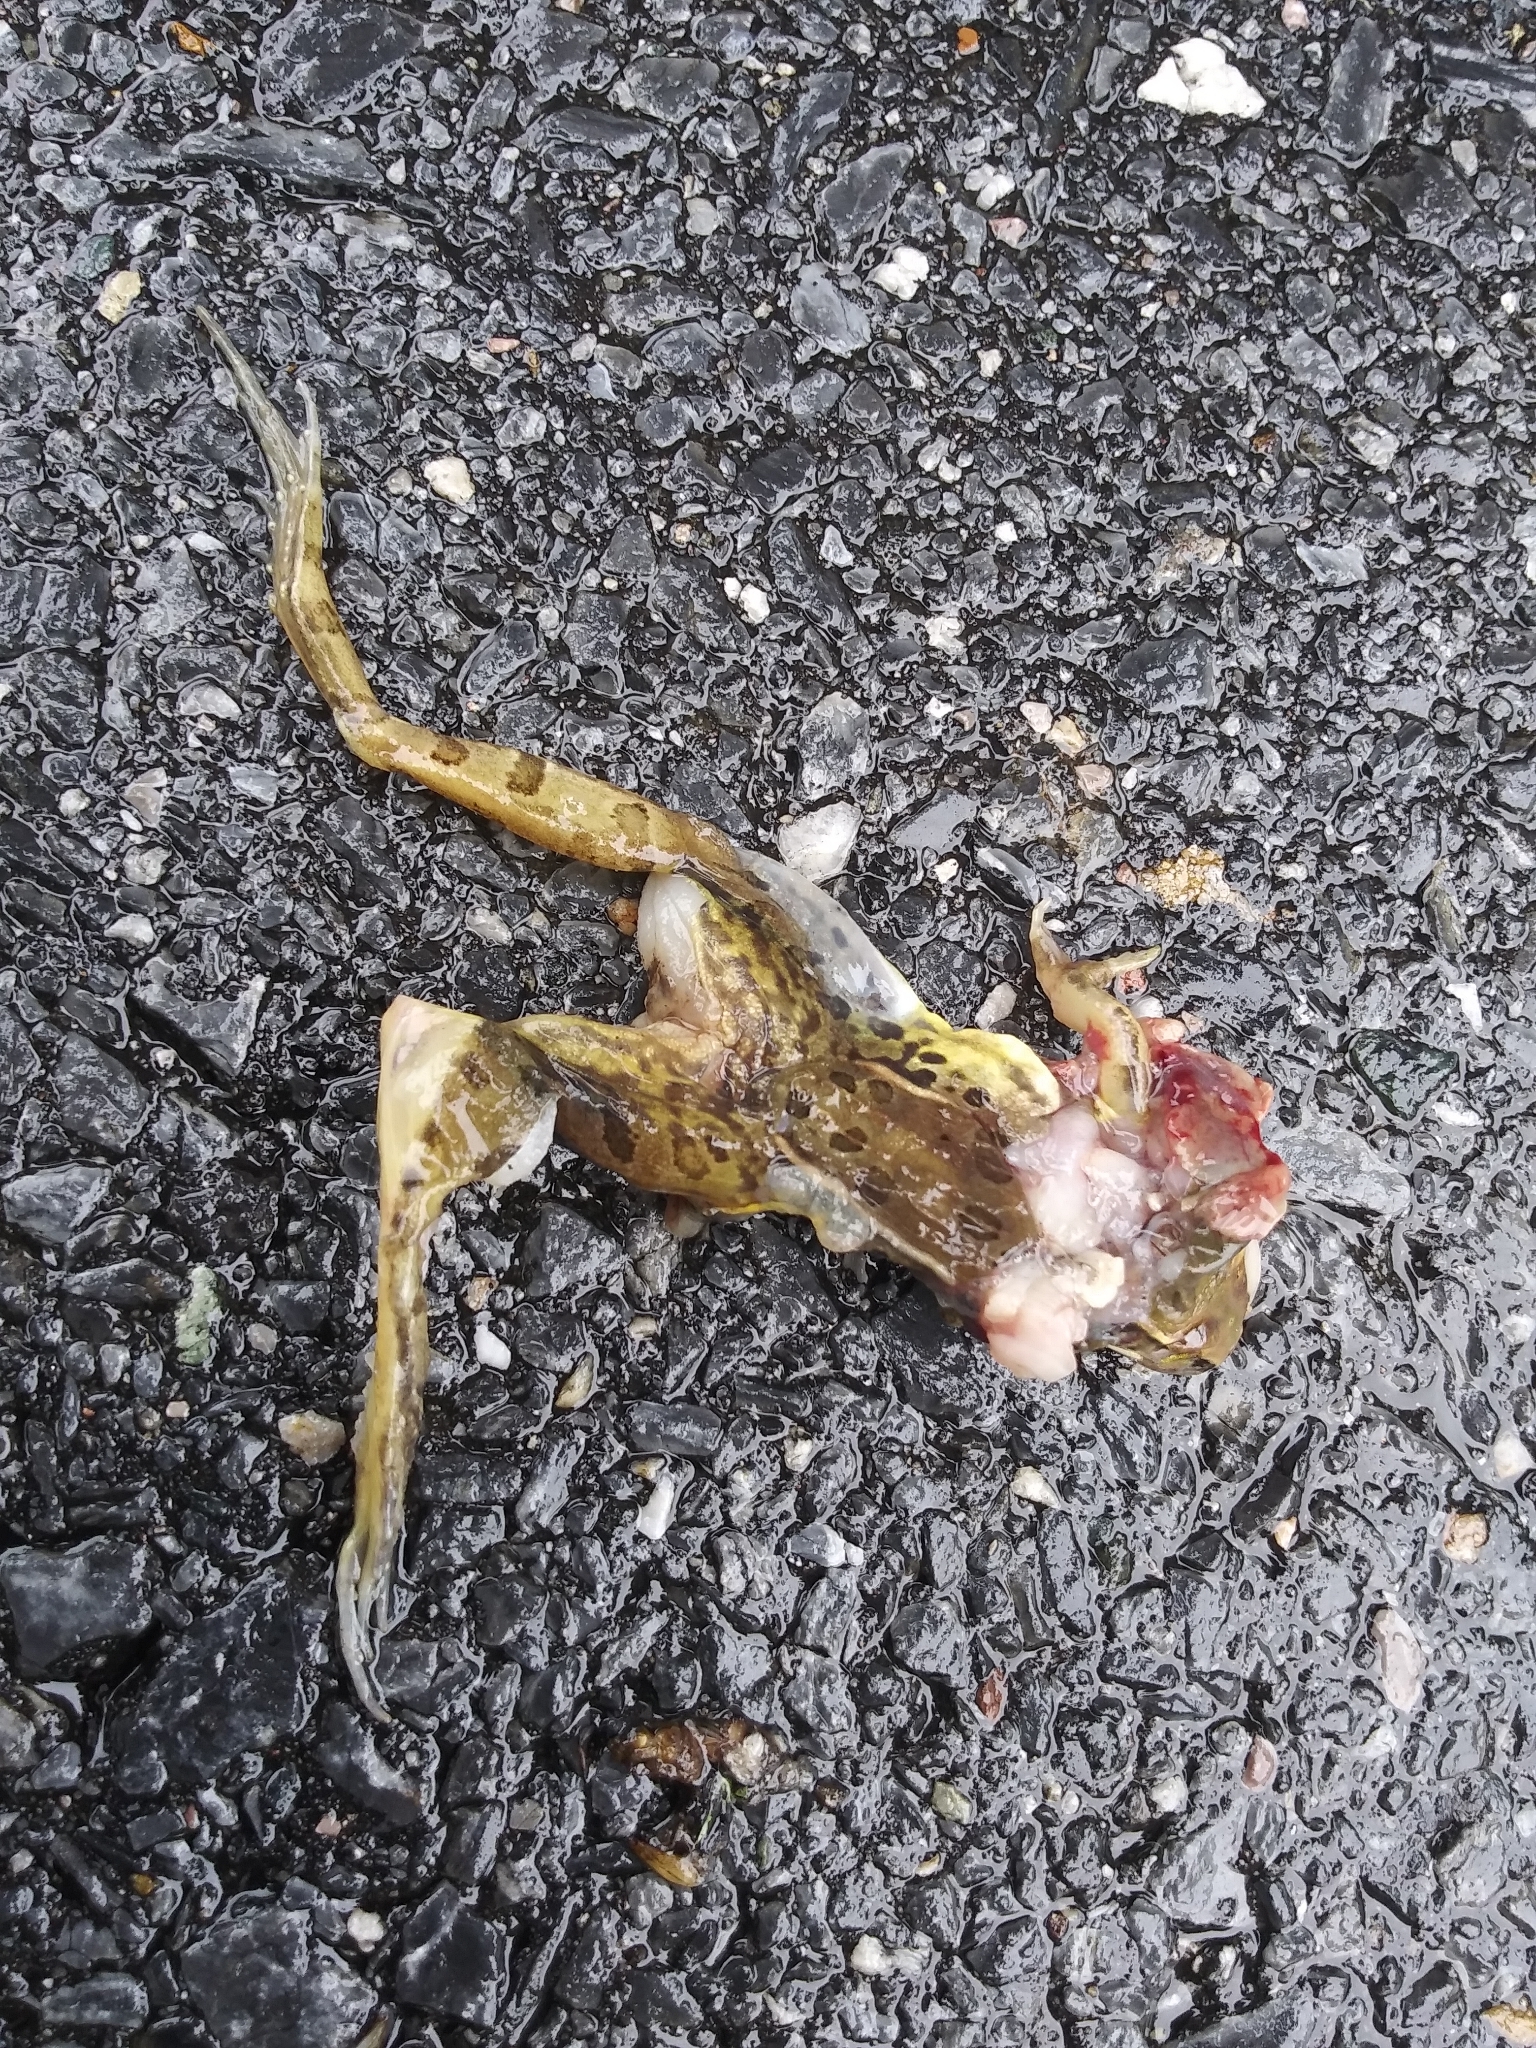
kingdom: Animalia
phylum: Chordata
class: Amphibia
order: Anura
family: Ranidae
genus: Lithobates
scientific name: Lithobates sphenocephalus
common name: Southern leopard frog
